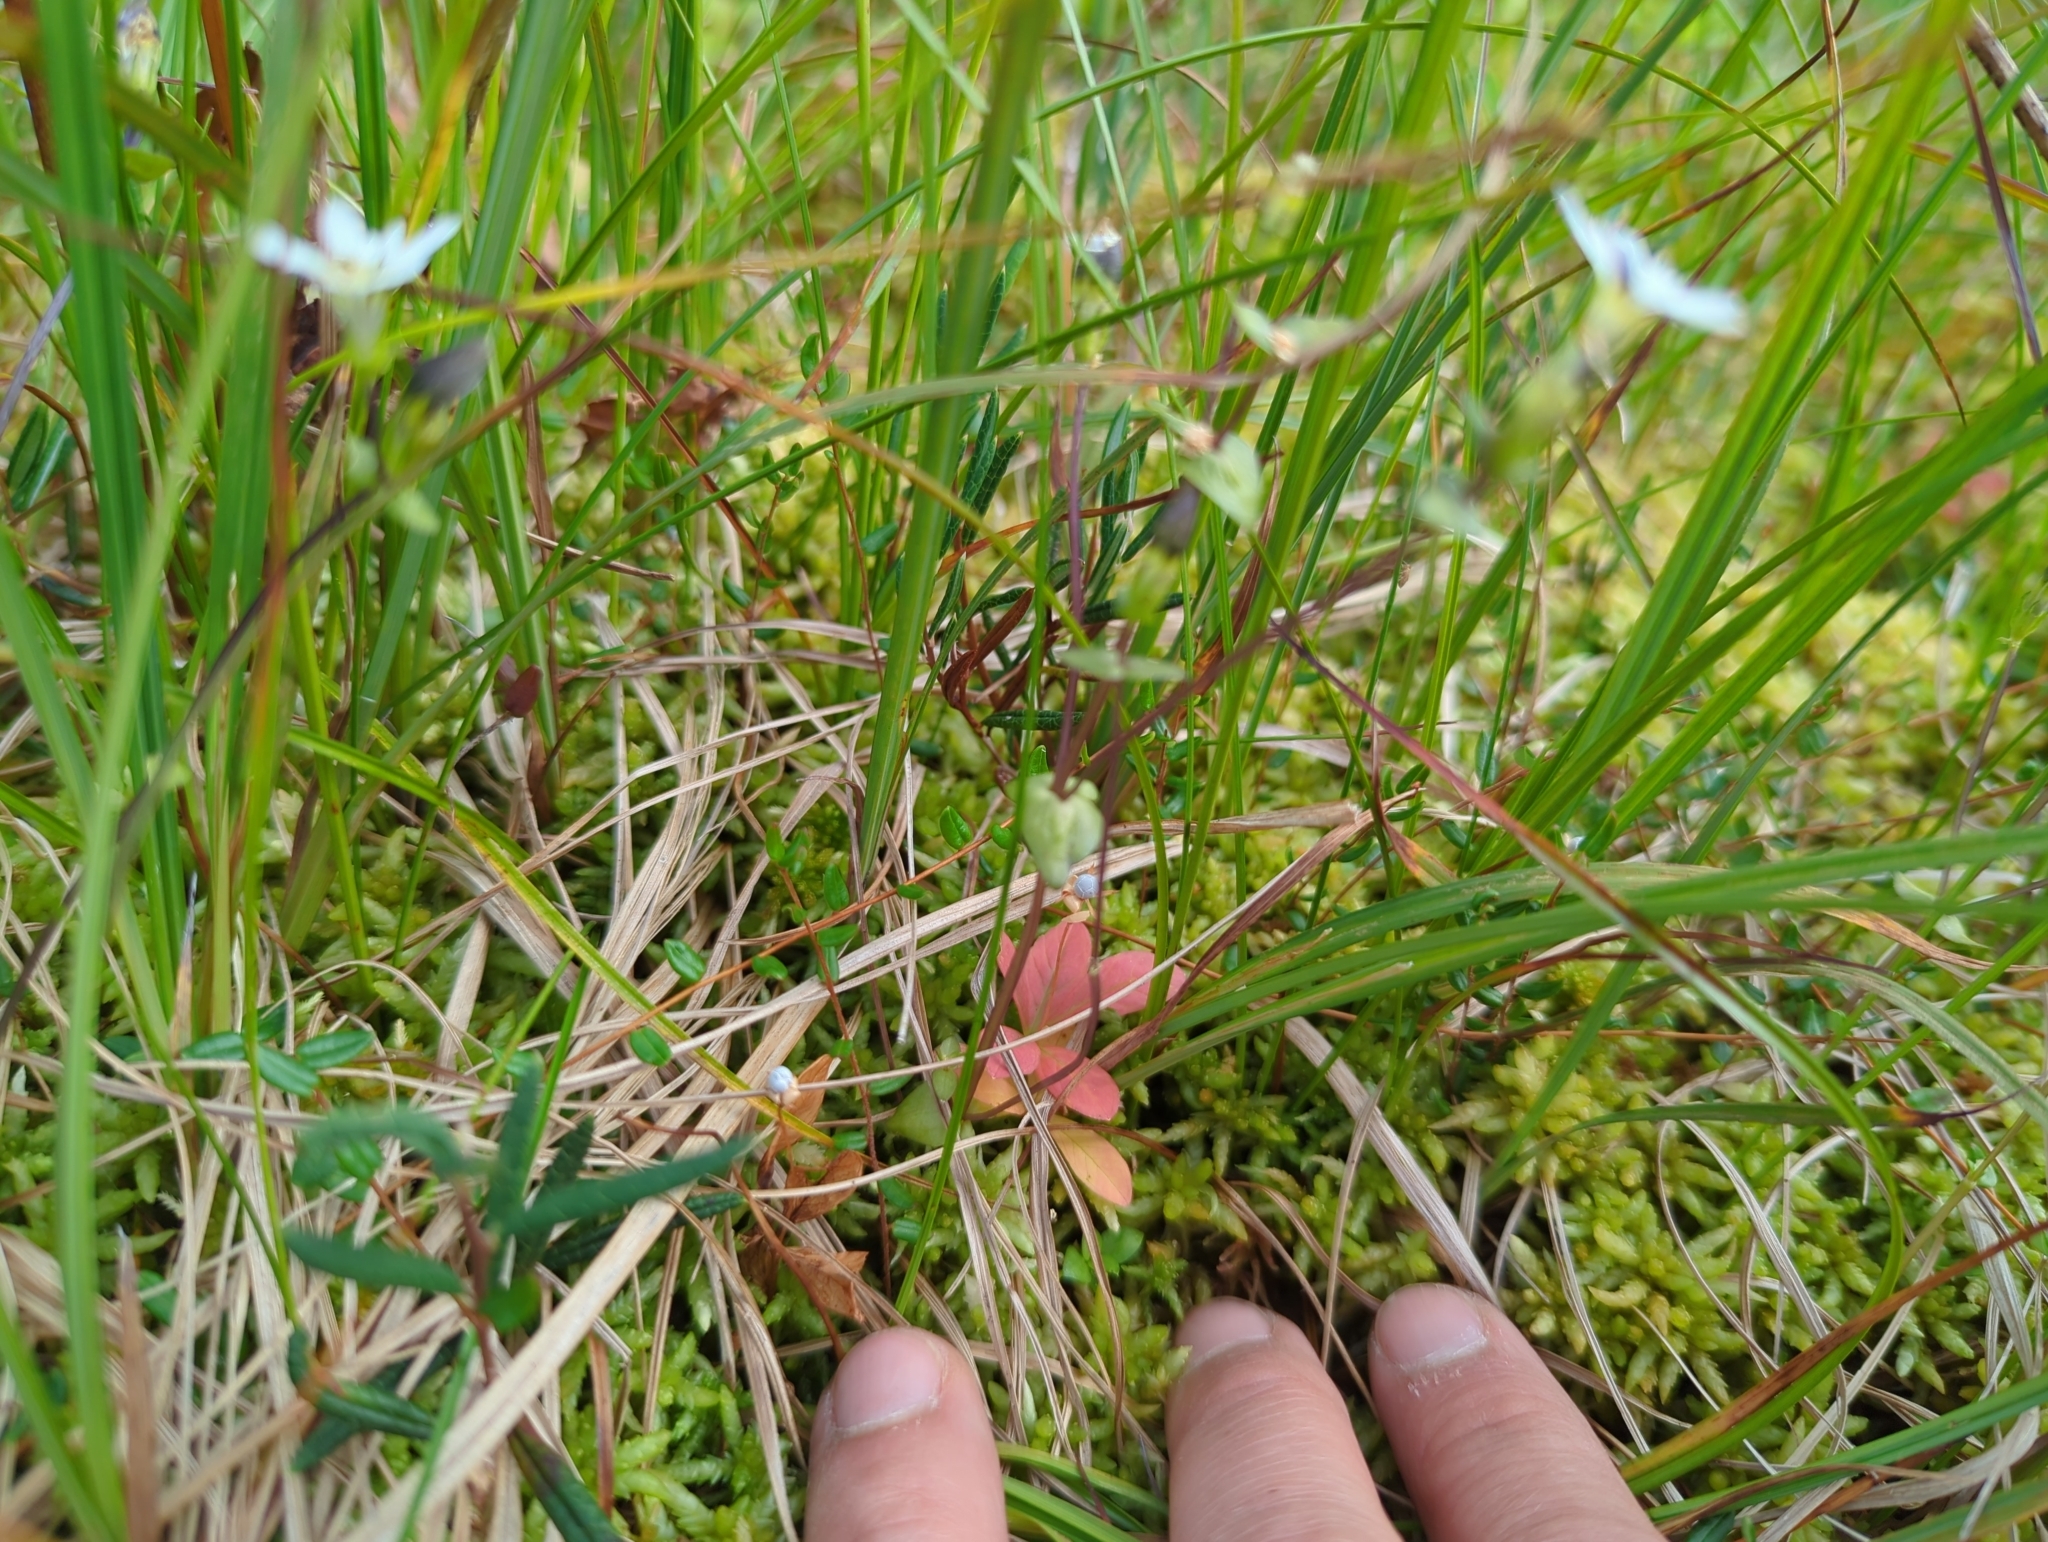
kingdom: Plantae
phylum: Tracheophyta
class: Magnoliopsida
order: Gentianales
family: Gentianaceae
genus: Gentiana
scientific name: Gentiana douglasiana
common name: Swamp gentian
